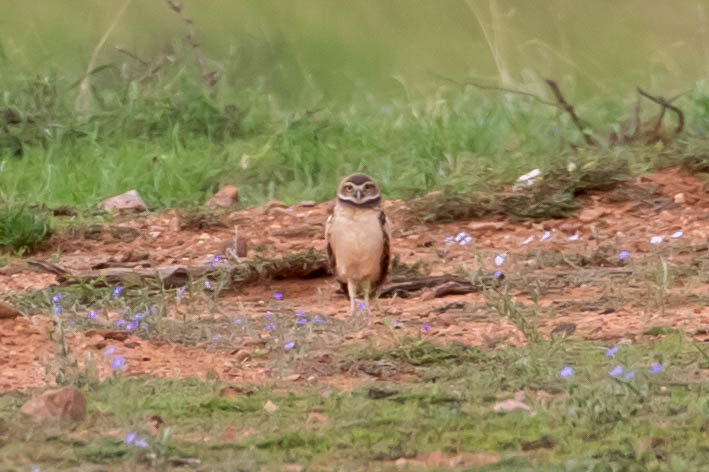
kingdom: Animalia
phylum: Chordata
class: Aves
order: Strigiformes
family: Strigidae
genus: Athene
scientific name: Athene cunicularia
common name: Burrowing owl
